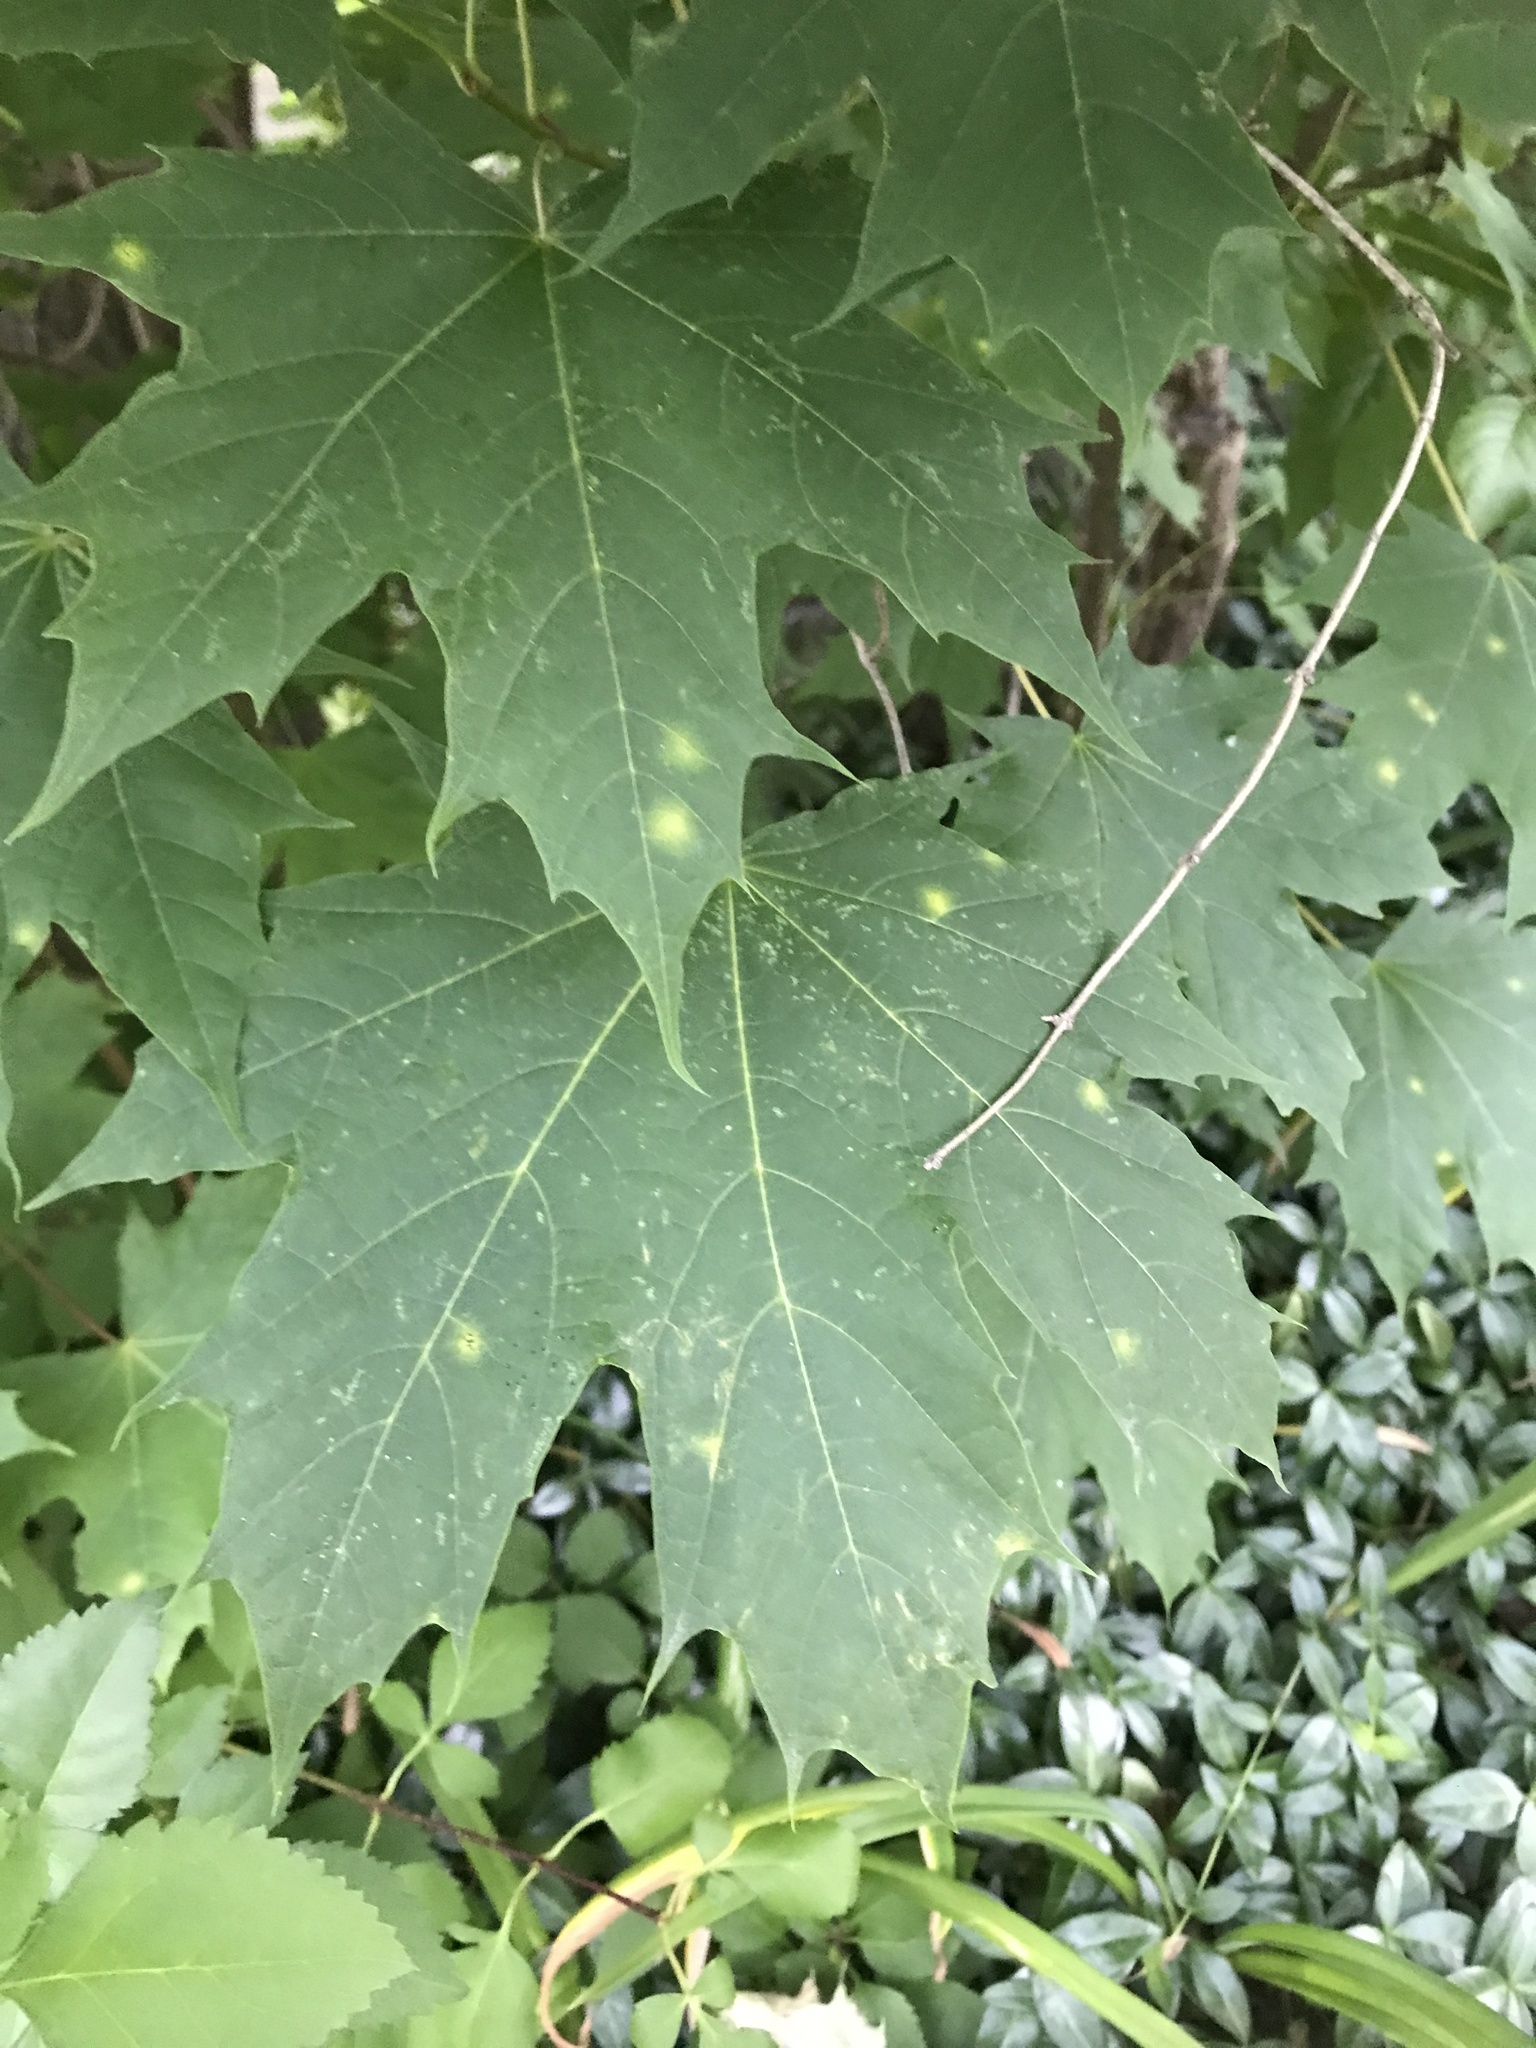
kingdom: Plantae
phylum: Tracheophyta
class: Magnoliopsida
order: Sapindales
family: Sapindaceae
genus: Acer
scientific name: Acer platanoides
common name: Norway maple
